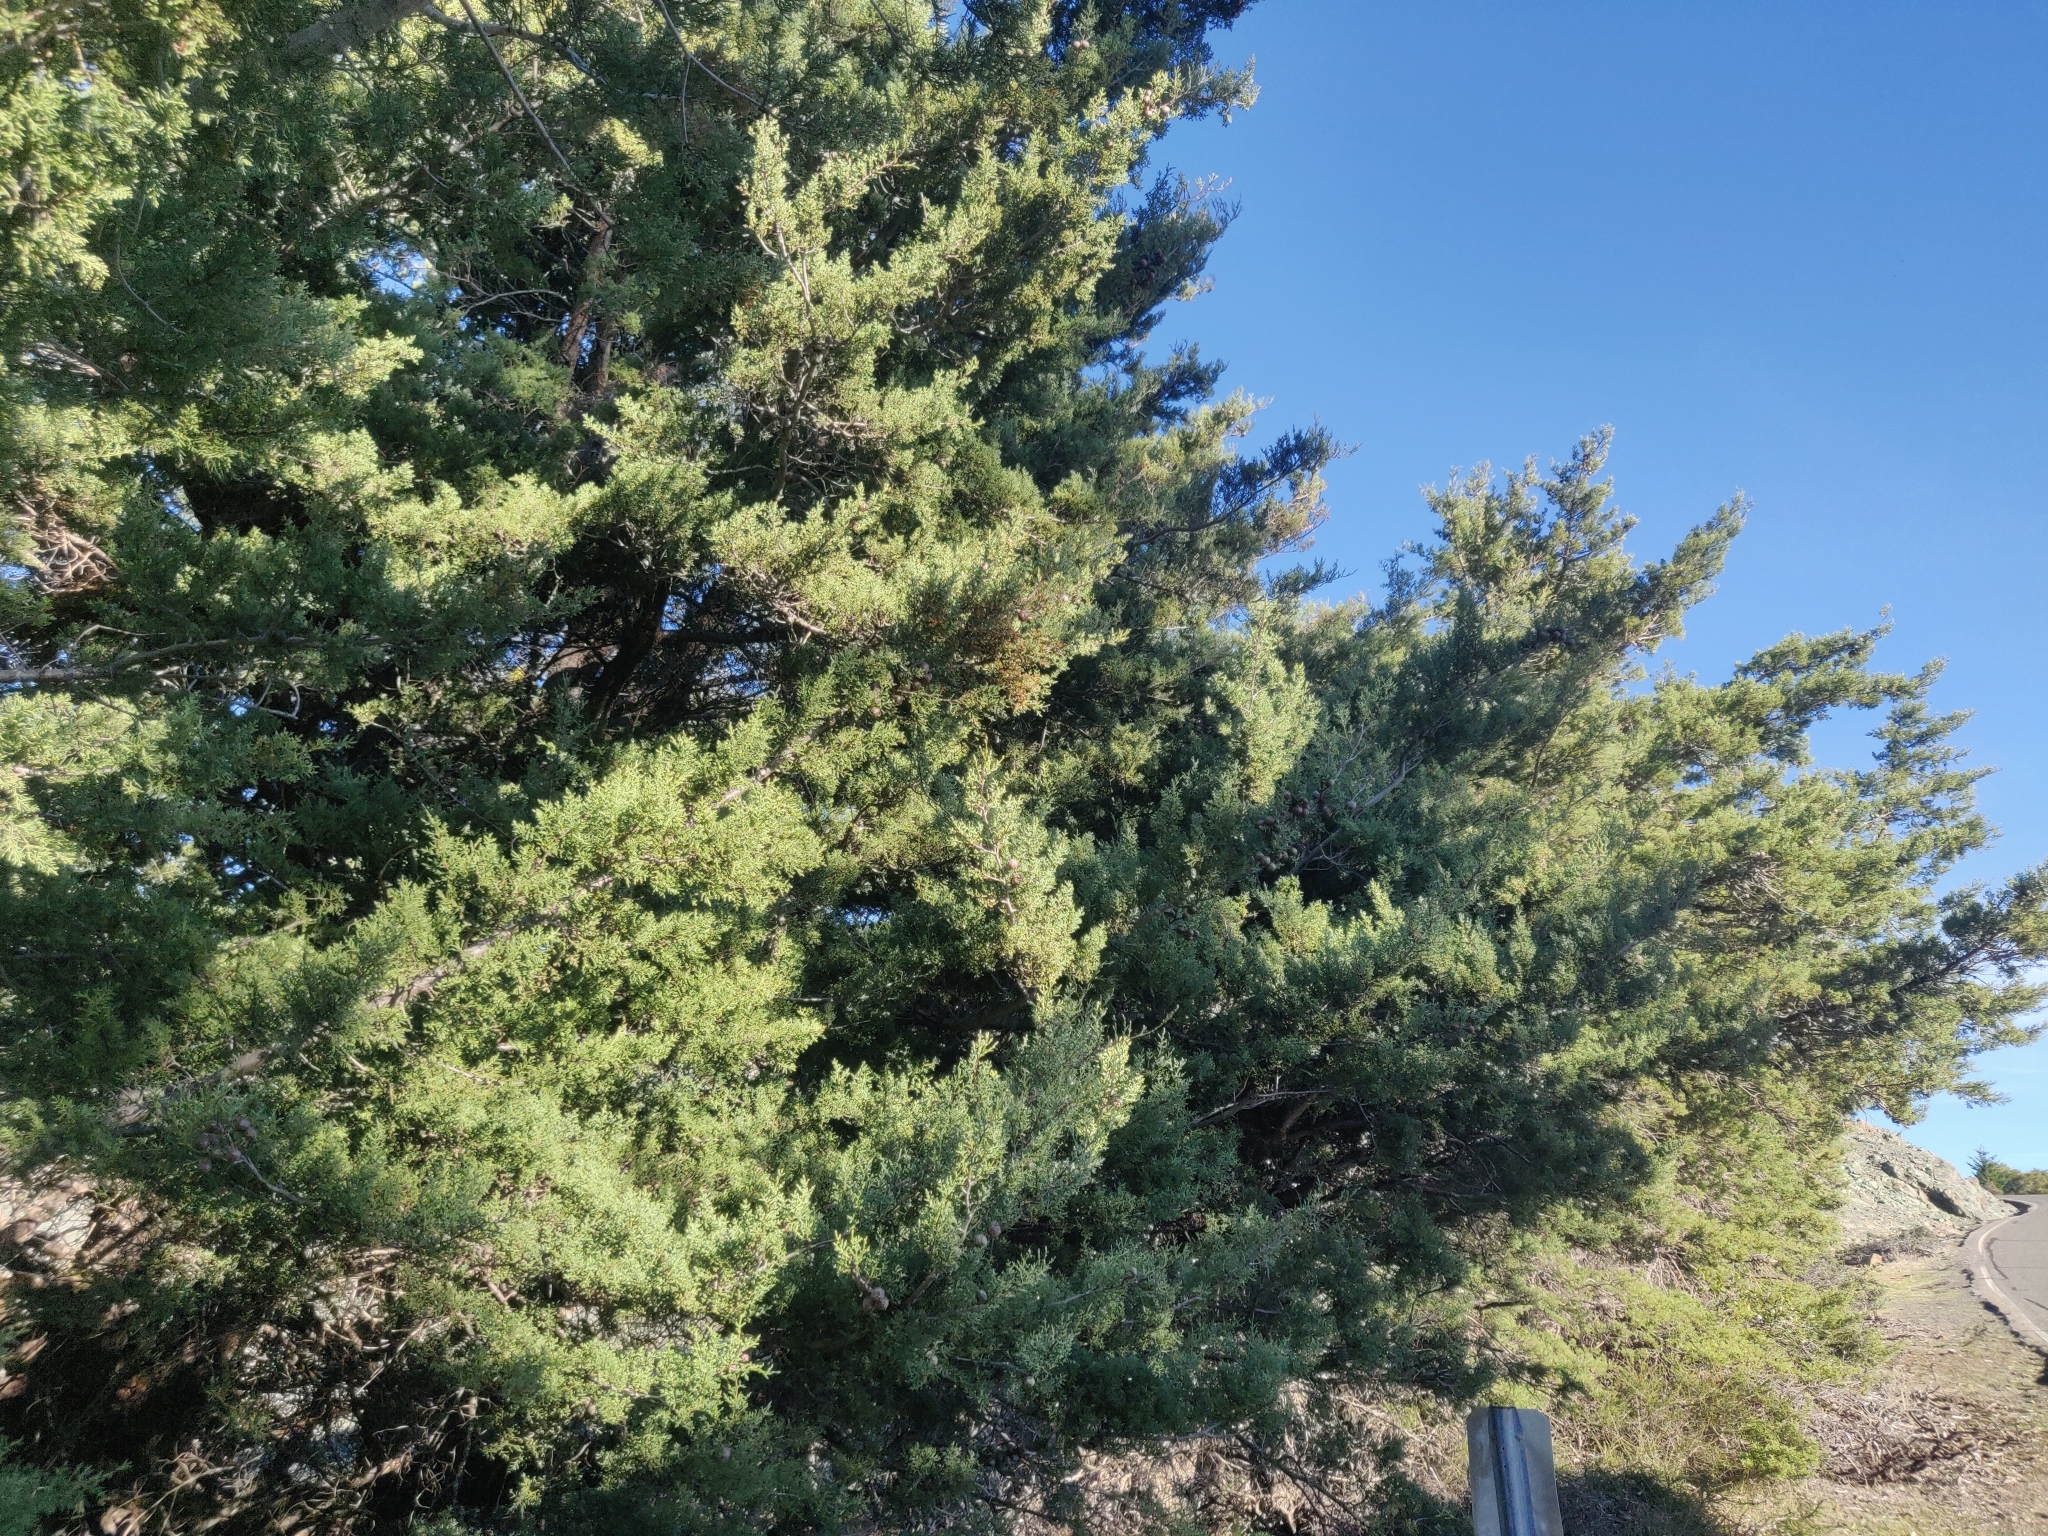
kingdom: Plantae
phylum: Tracheophyta
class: Pinopsida
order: Pinales
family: Cupressaceae
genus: Cupressus
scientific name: Cupressus sargentii
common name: Sargent cypress
